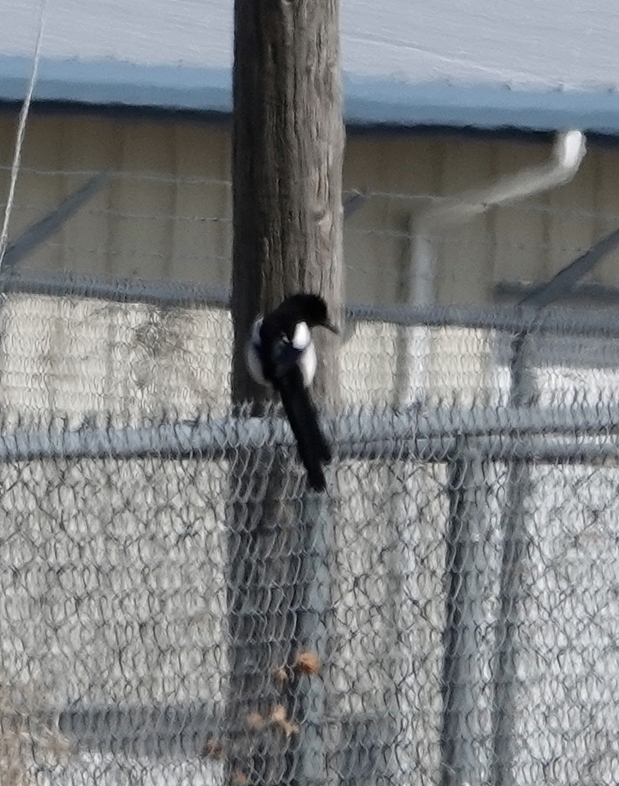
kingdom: Animalia
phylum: Chordata
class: Aves
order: Passeriformes
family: Corvidae
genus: Pica
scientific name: Pica hudsonia
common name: Black-billed magpie
